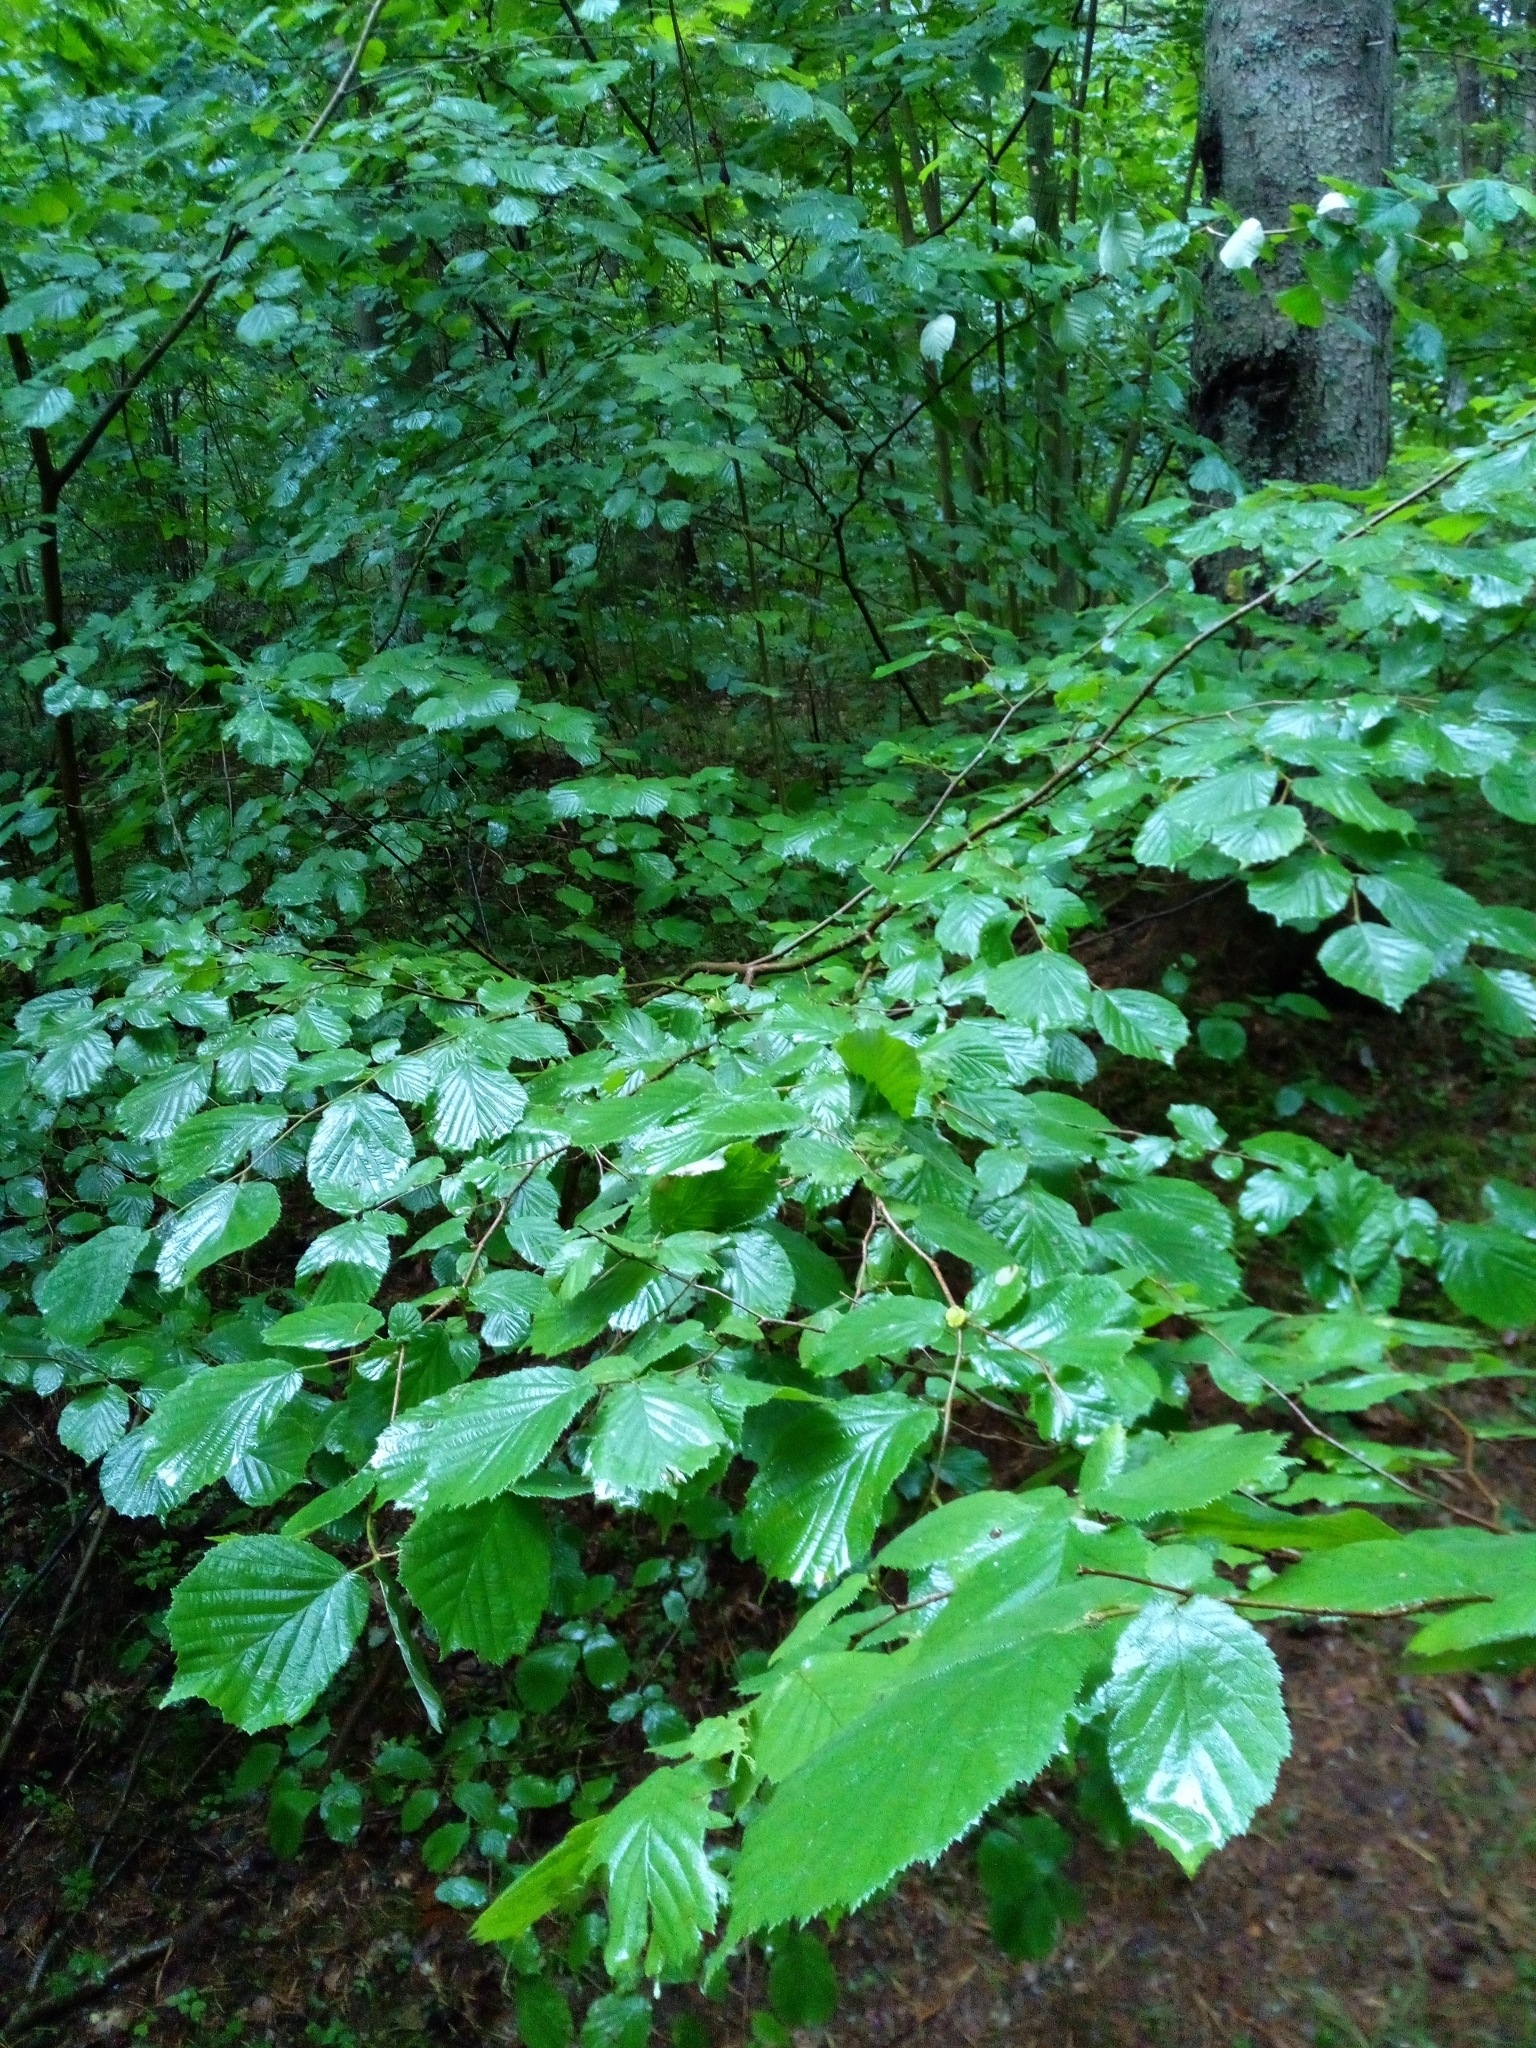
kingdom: Plantae
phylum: Tracheophyta
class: Magnoliopsida
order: Fagales
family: Betulaceae
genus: Corylus
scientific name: Corylus avellana
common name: European hazel
